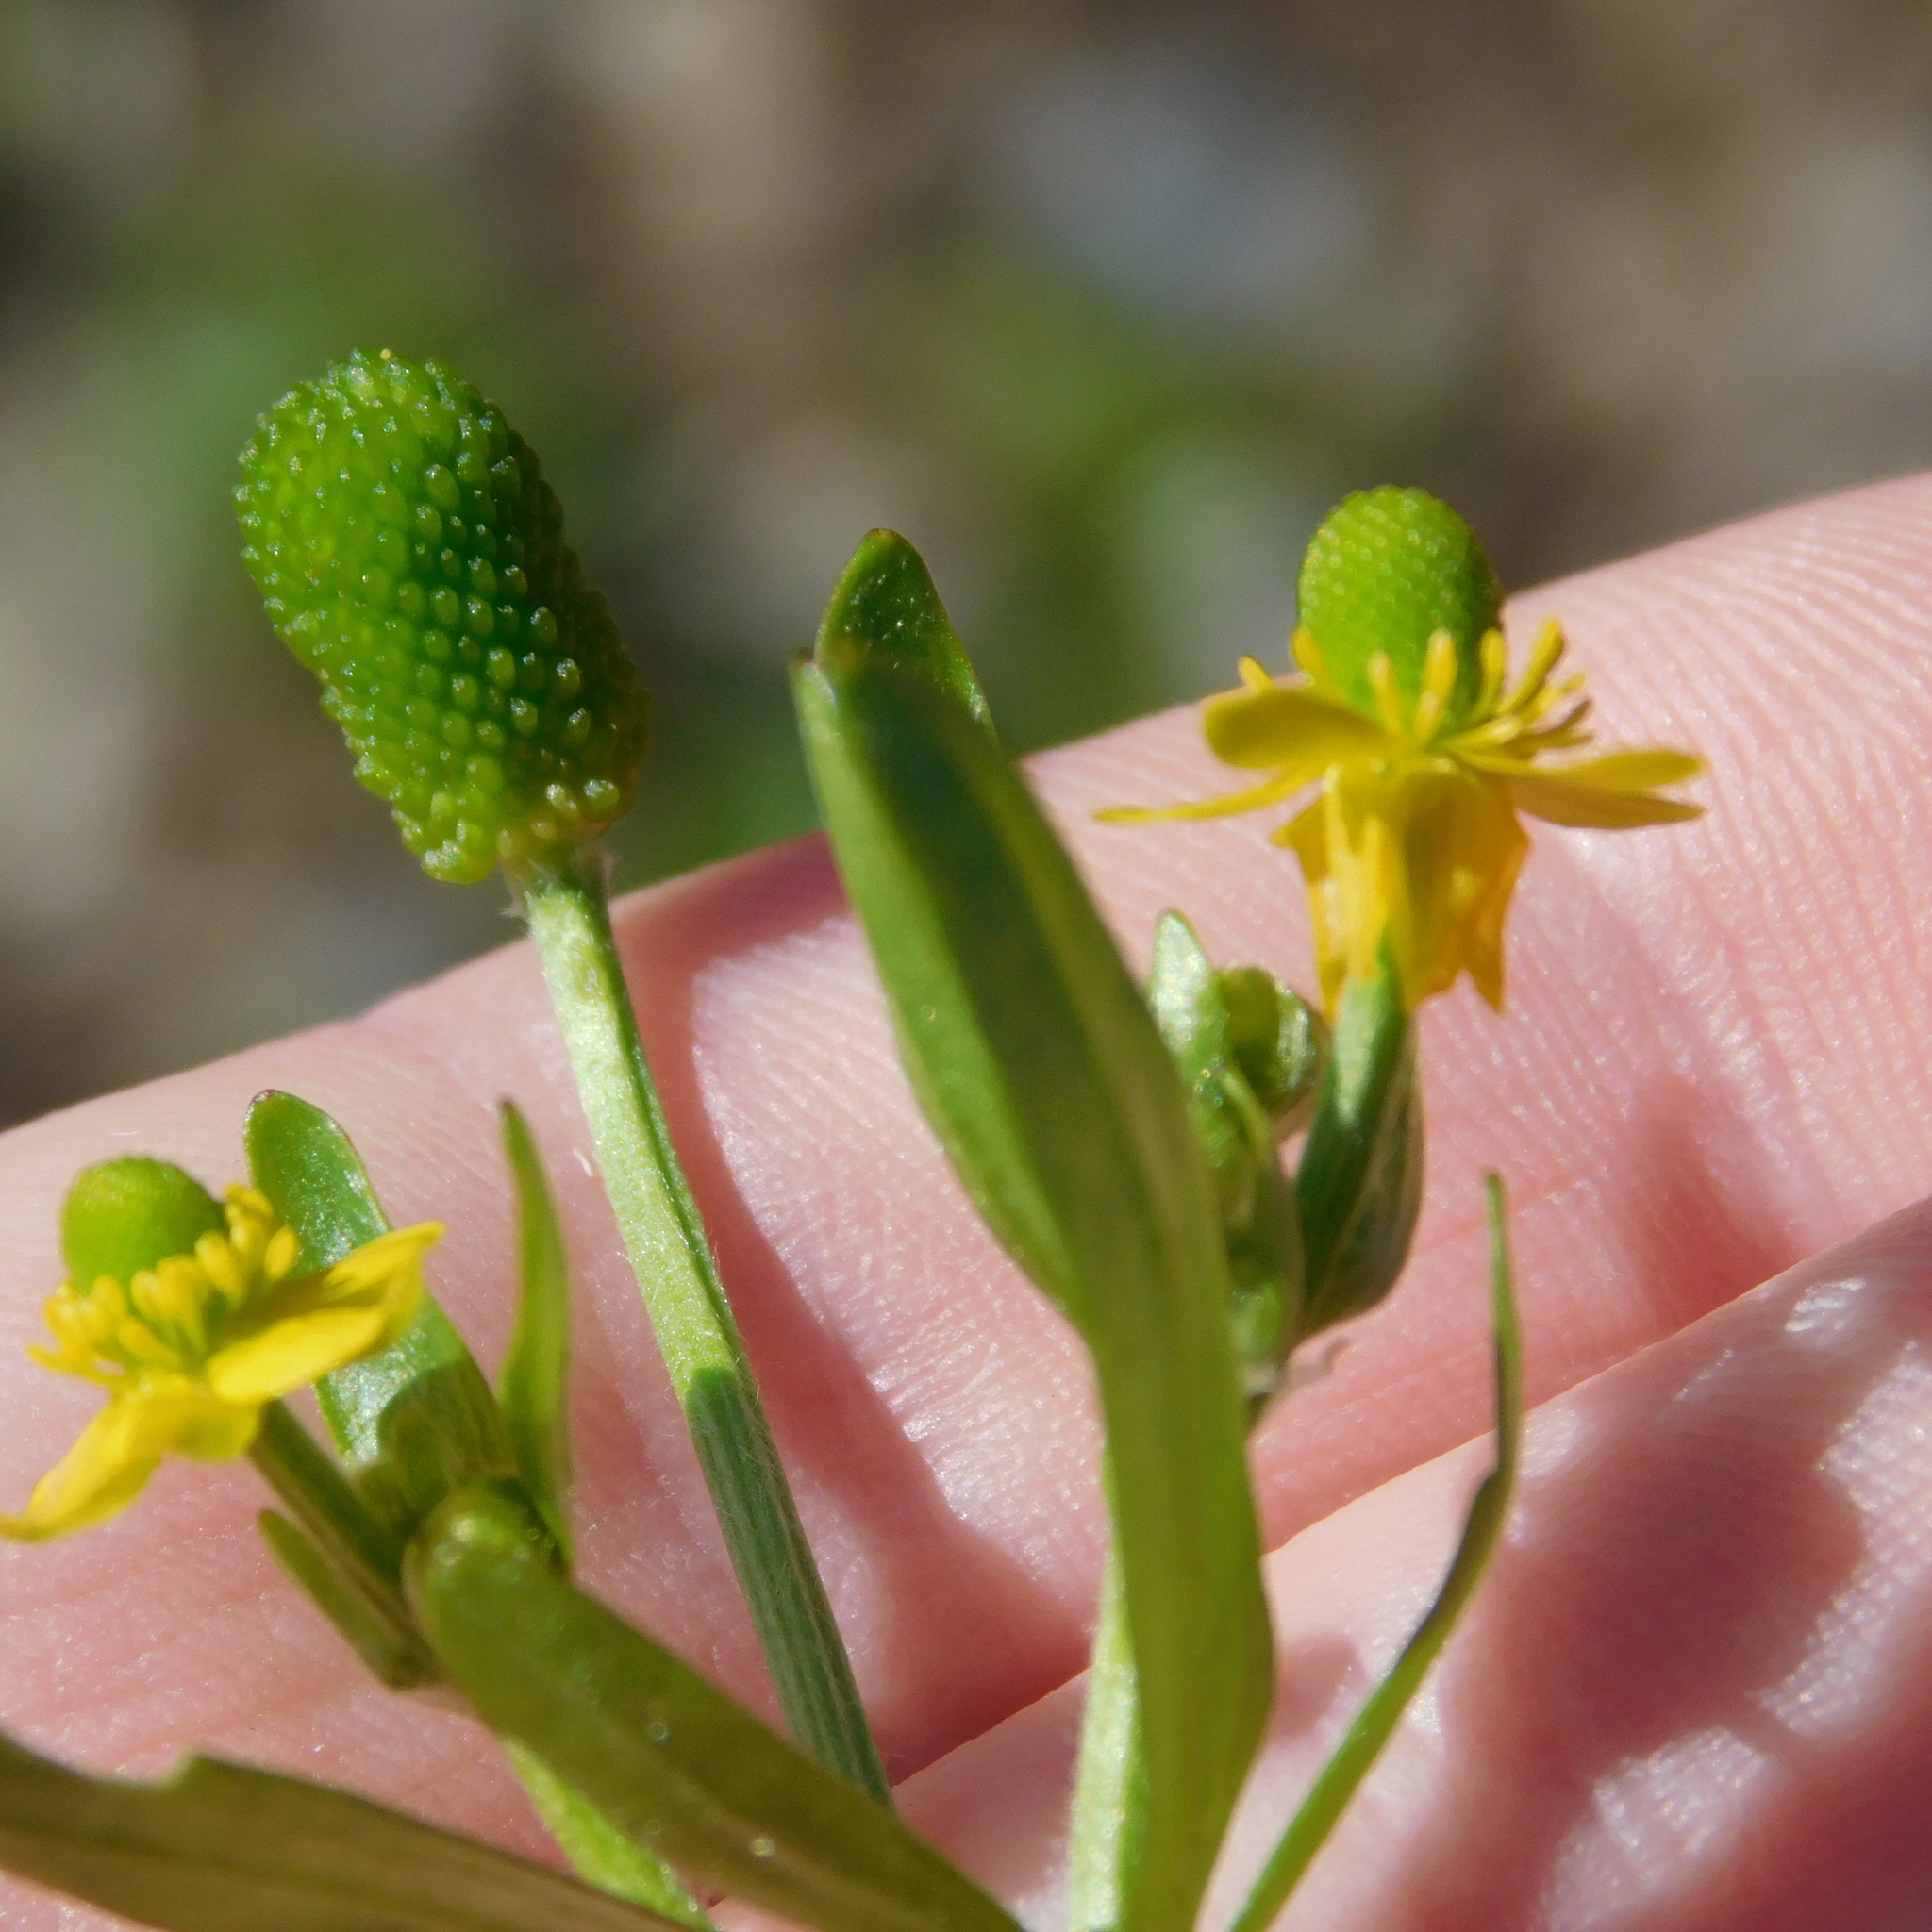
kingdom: Plantae
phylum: Tracheophyta
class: Magnoliopsida
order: Ranunculales
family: Ranunculaceae
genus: Ranunculus
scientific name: Ranunculus sceleratus
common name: Celery-leaved buttercup
